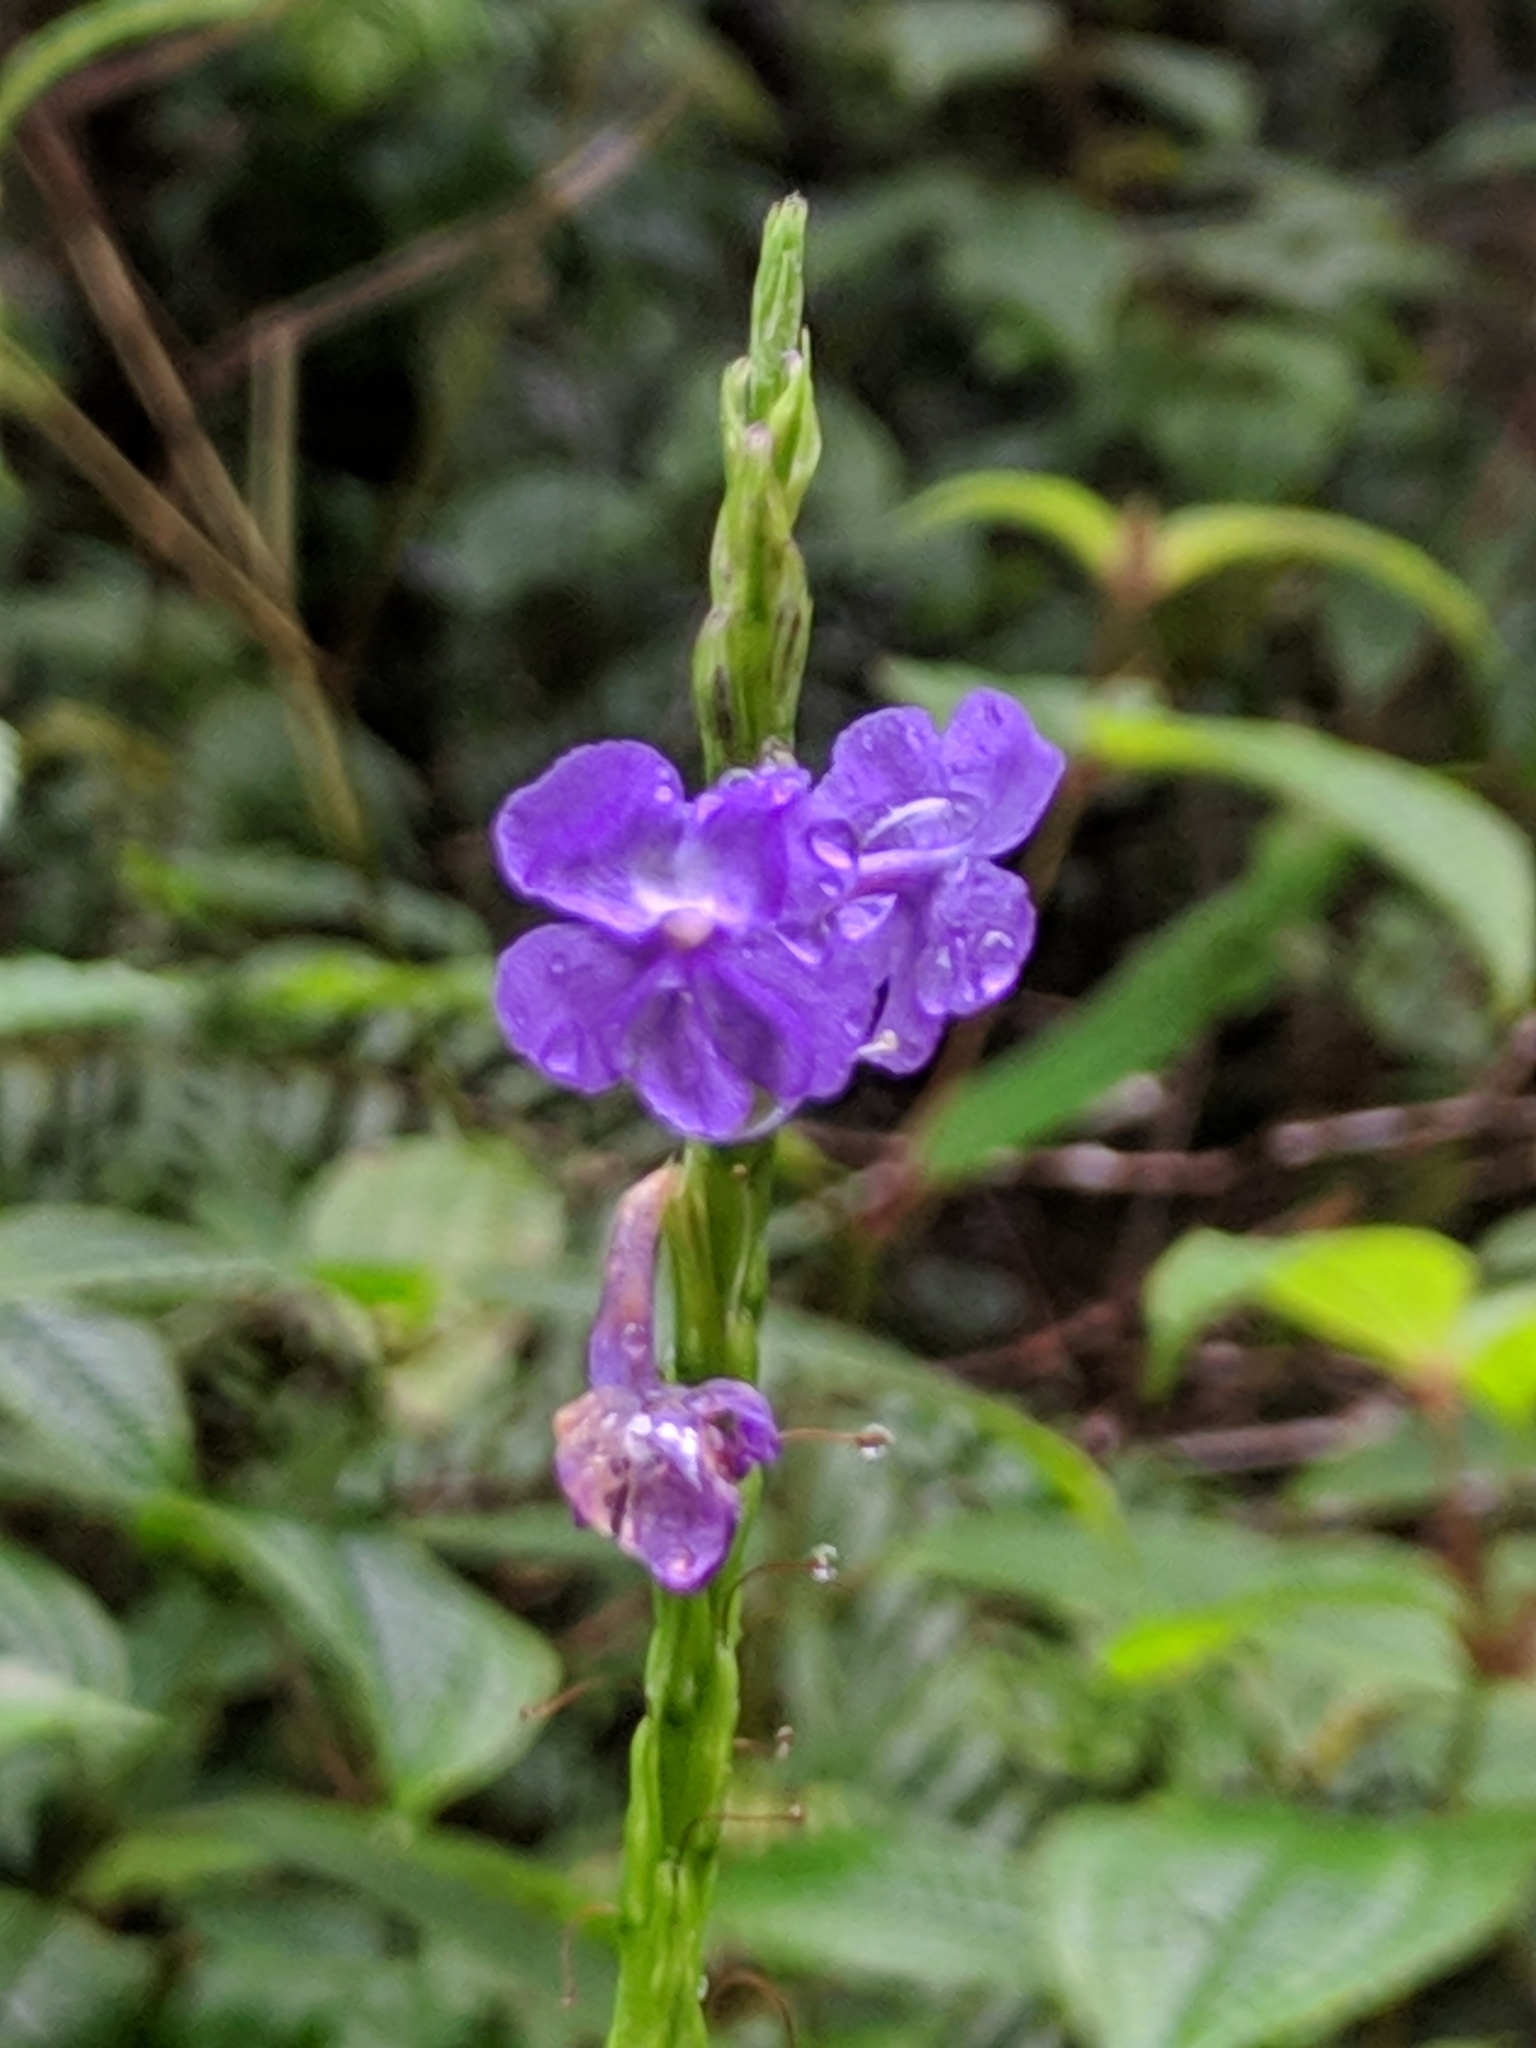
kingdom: Plantae
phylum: Tracheophyta
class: Magnoliopsida
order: Lamiales
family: Verbenaceae
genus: Stachytarpheta
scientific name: Stachytarpheta jamaicensis
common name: Light-blue snakeweed
